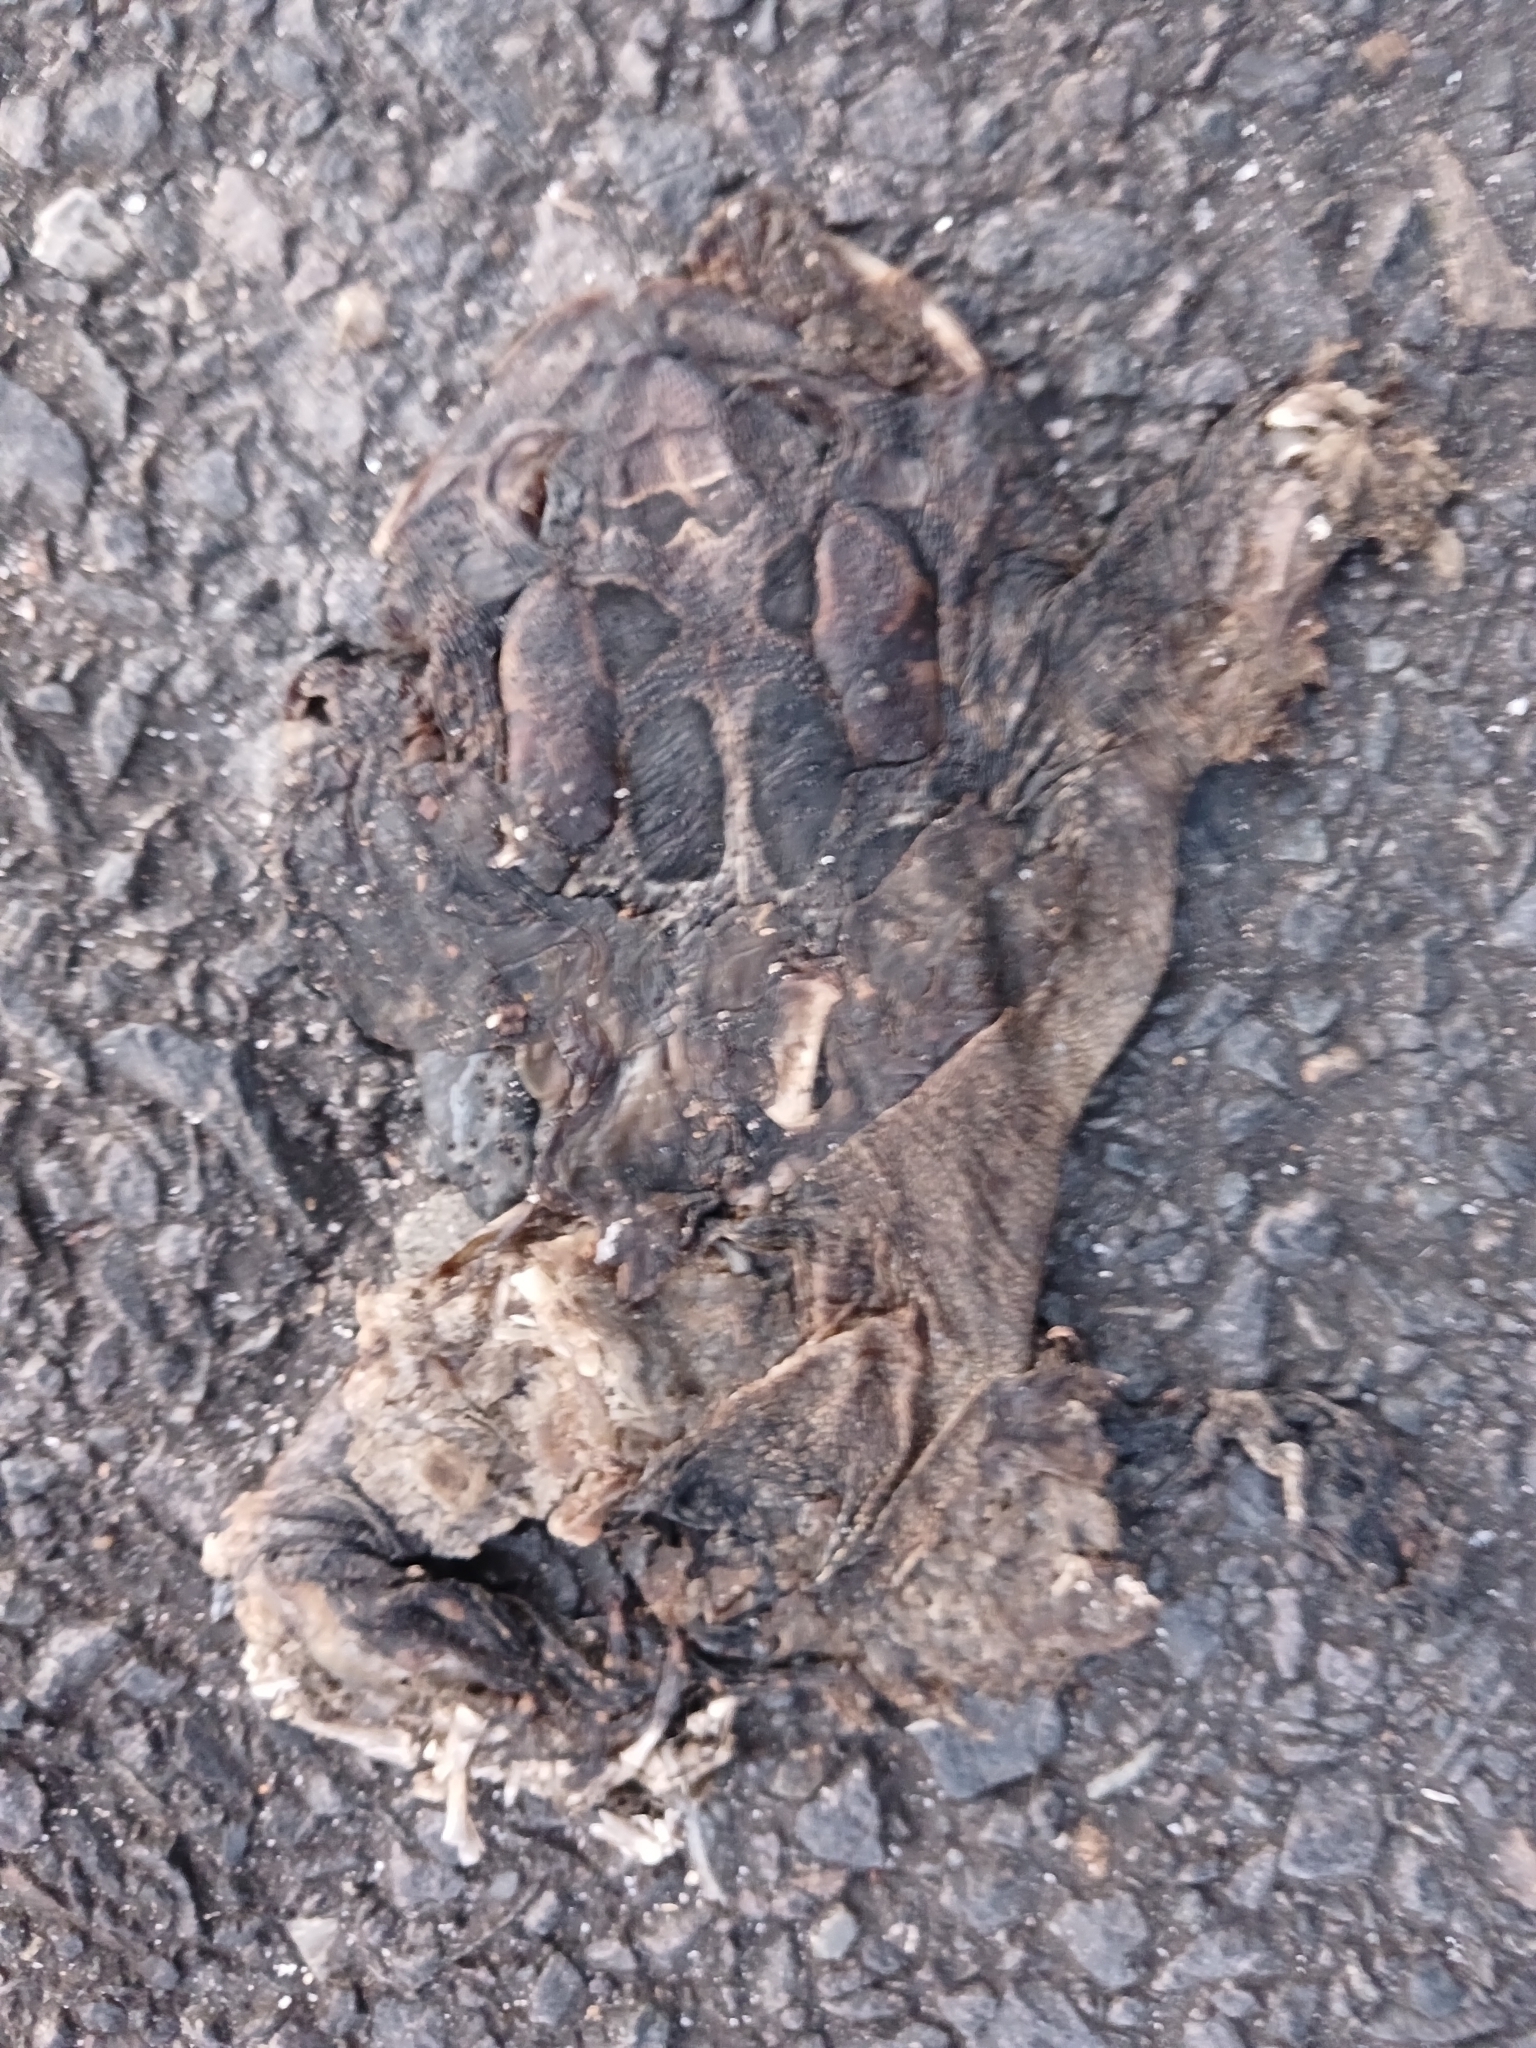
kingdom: Animalia
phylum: Chordata
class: Amphibia
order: Anura
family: Bufonidae
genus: Sclerophrys
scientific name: Sclerophrys pantherina
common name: Panther toad
